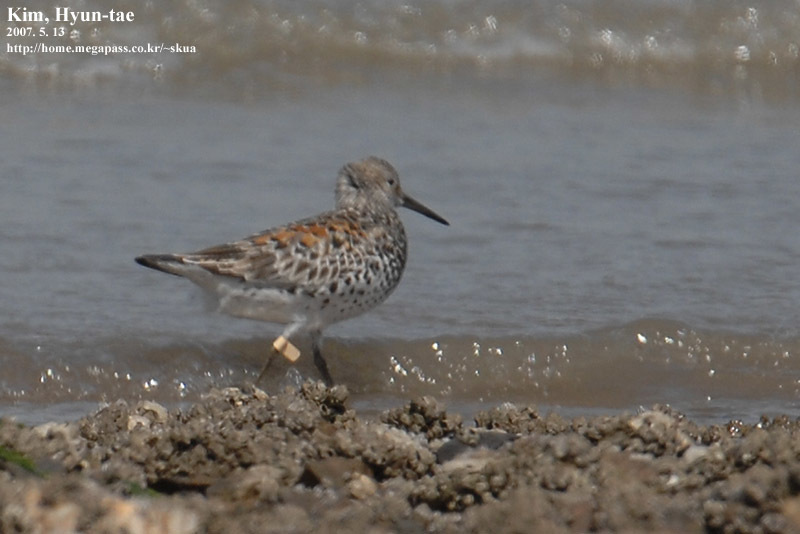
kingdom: Animalia
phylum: Chordata
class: Aves
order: Charadriiformes
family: Scolopacidae
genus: Calidris
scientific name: Calidris tenuirostris
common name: Great knot
